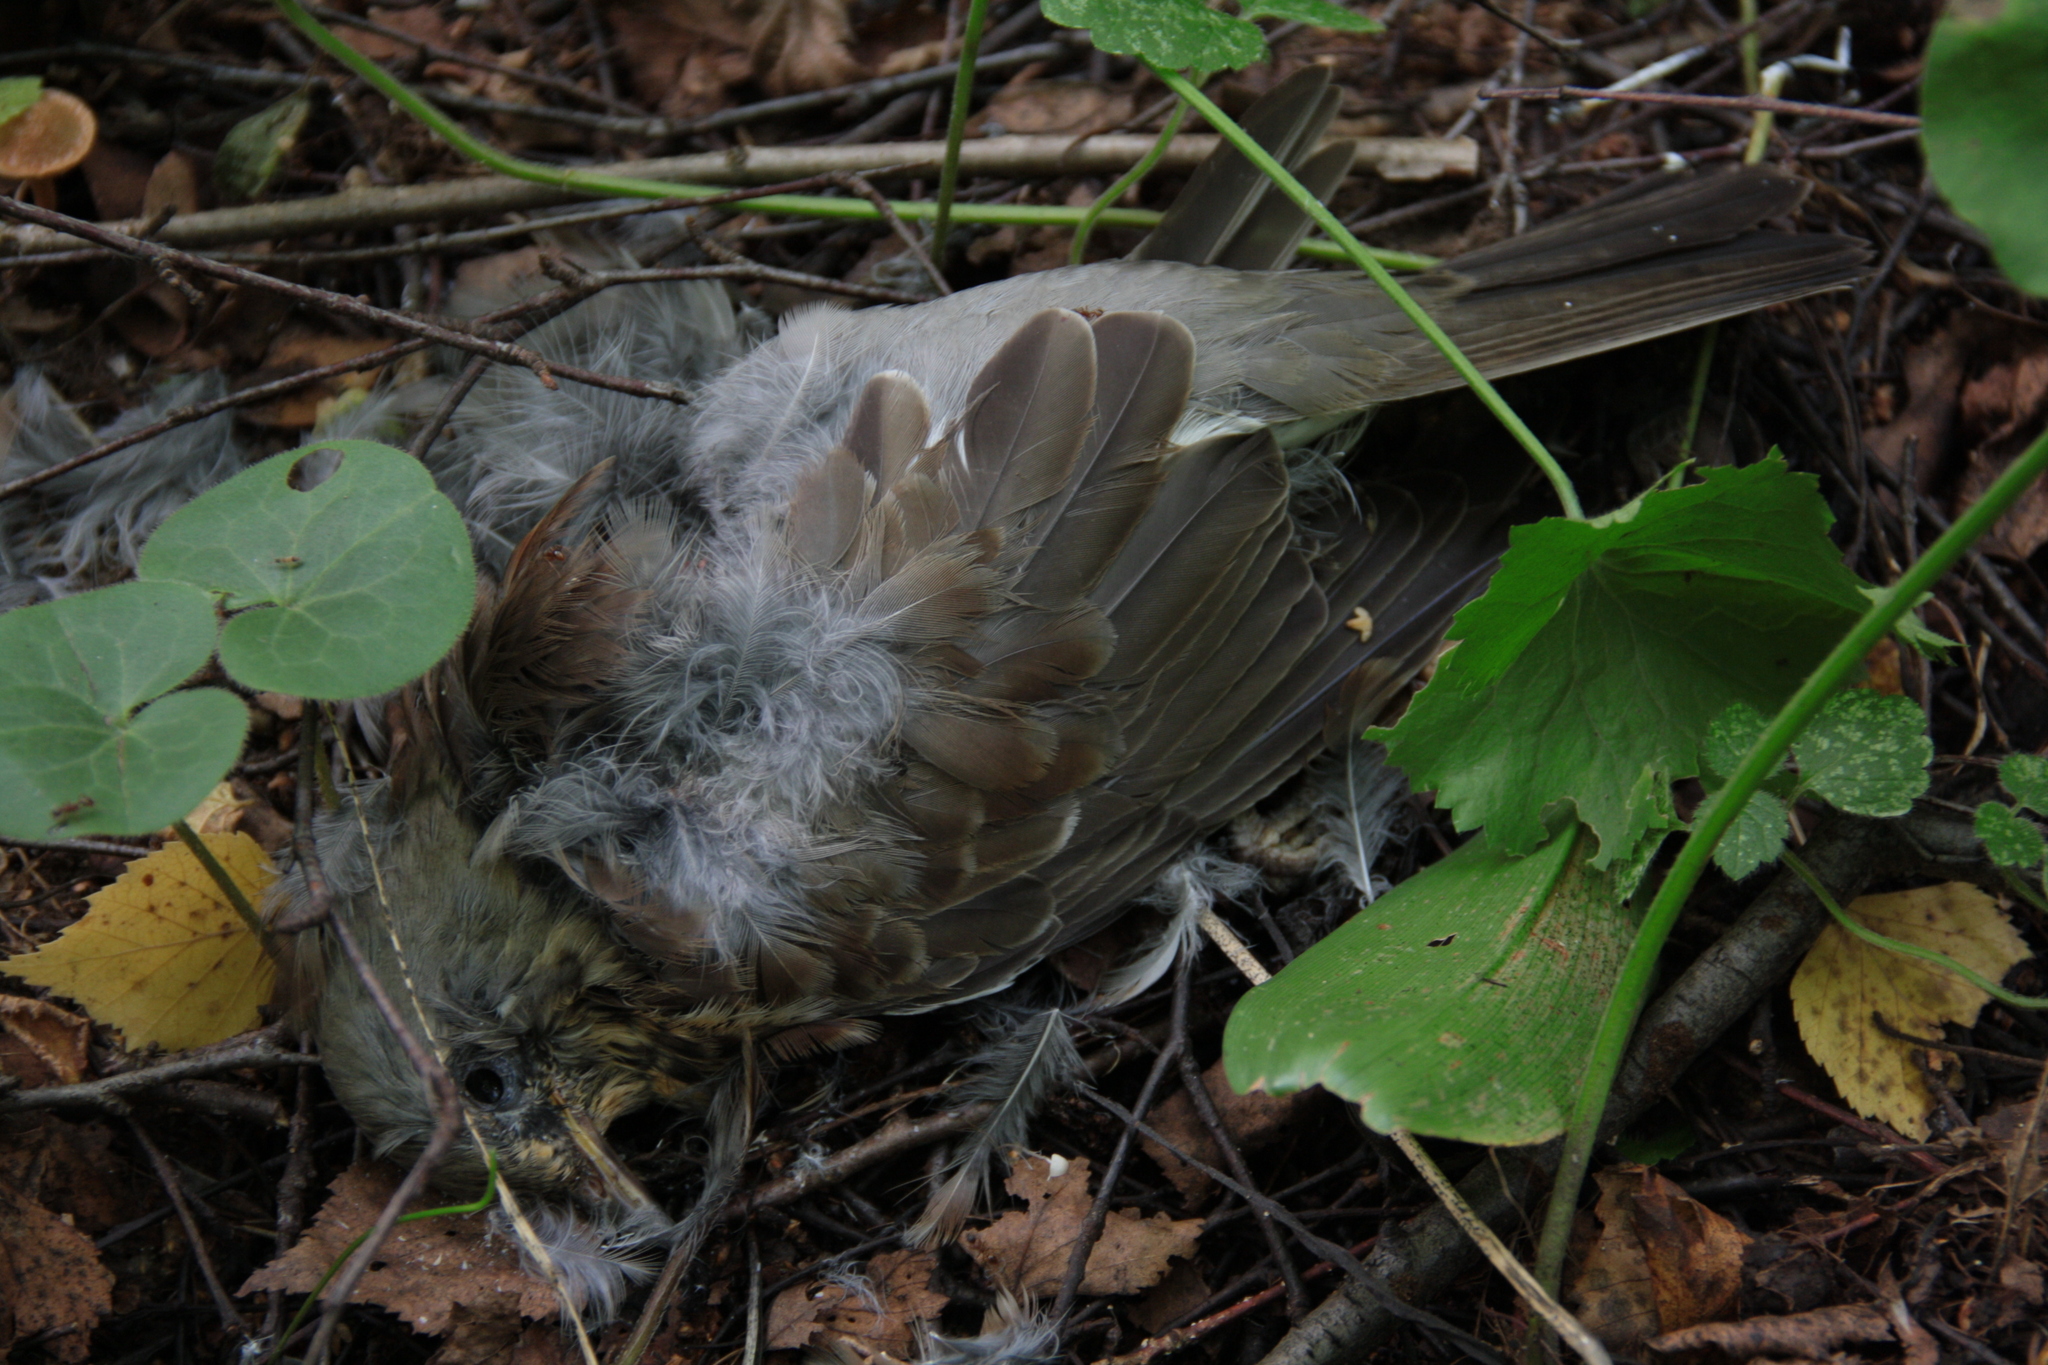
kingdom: Animalia
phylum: Chordata
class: Aves
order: Passeriformes
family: Turdidae
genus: Turdus
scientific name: Turdus pilaris
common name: Fieldfare
